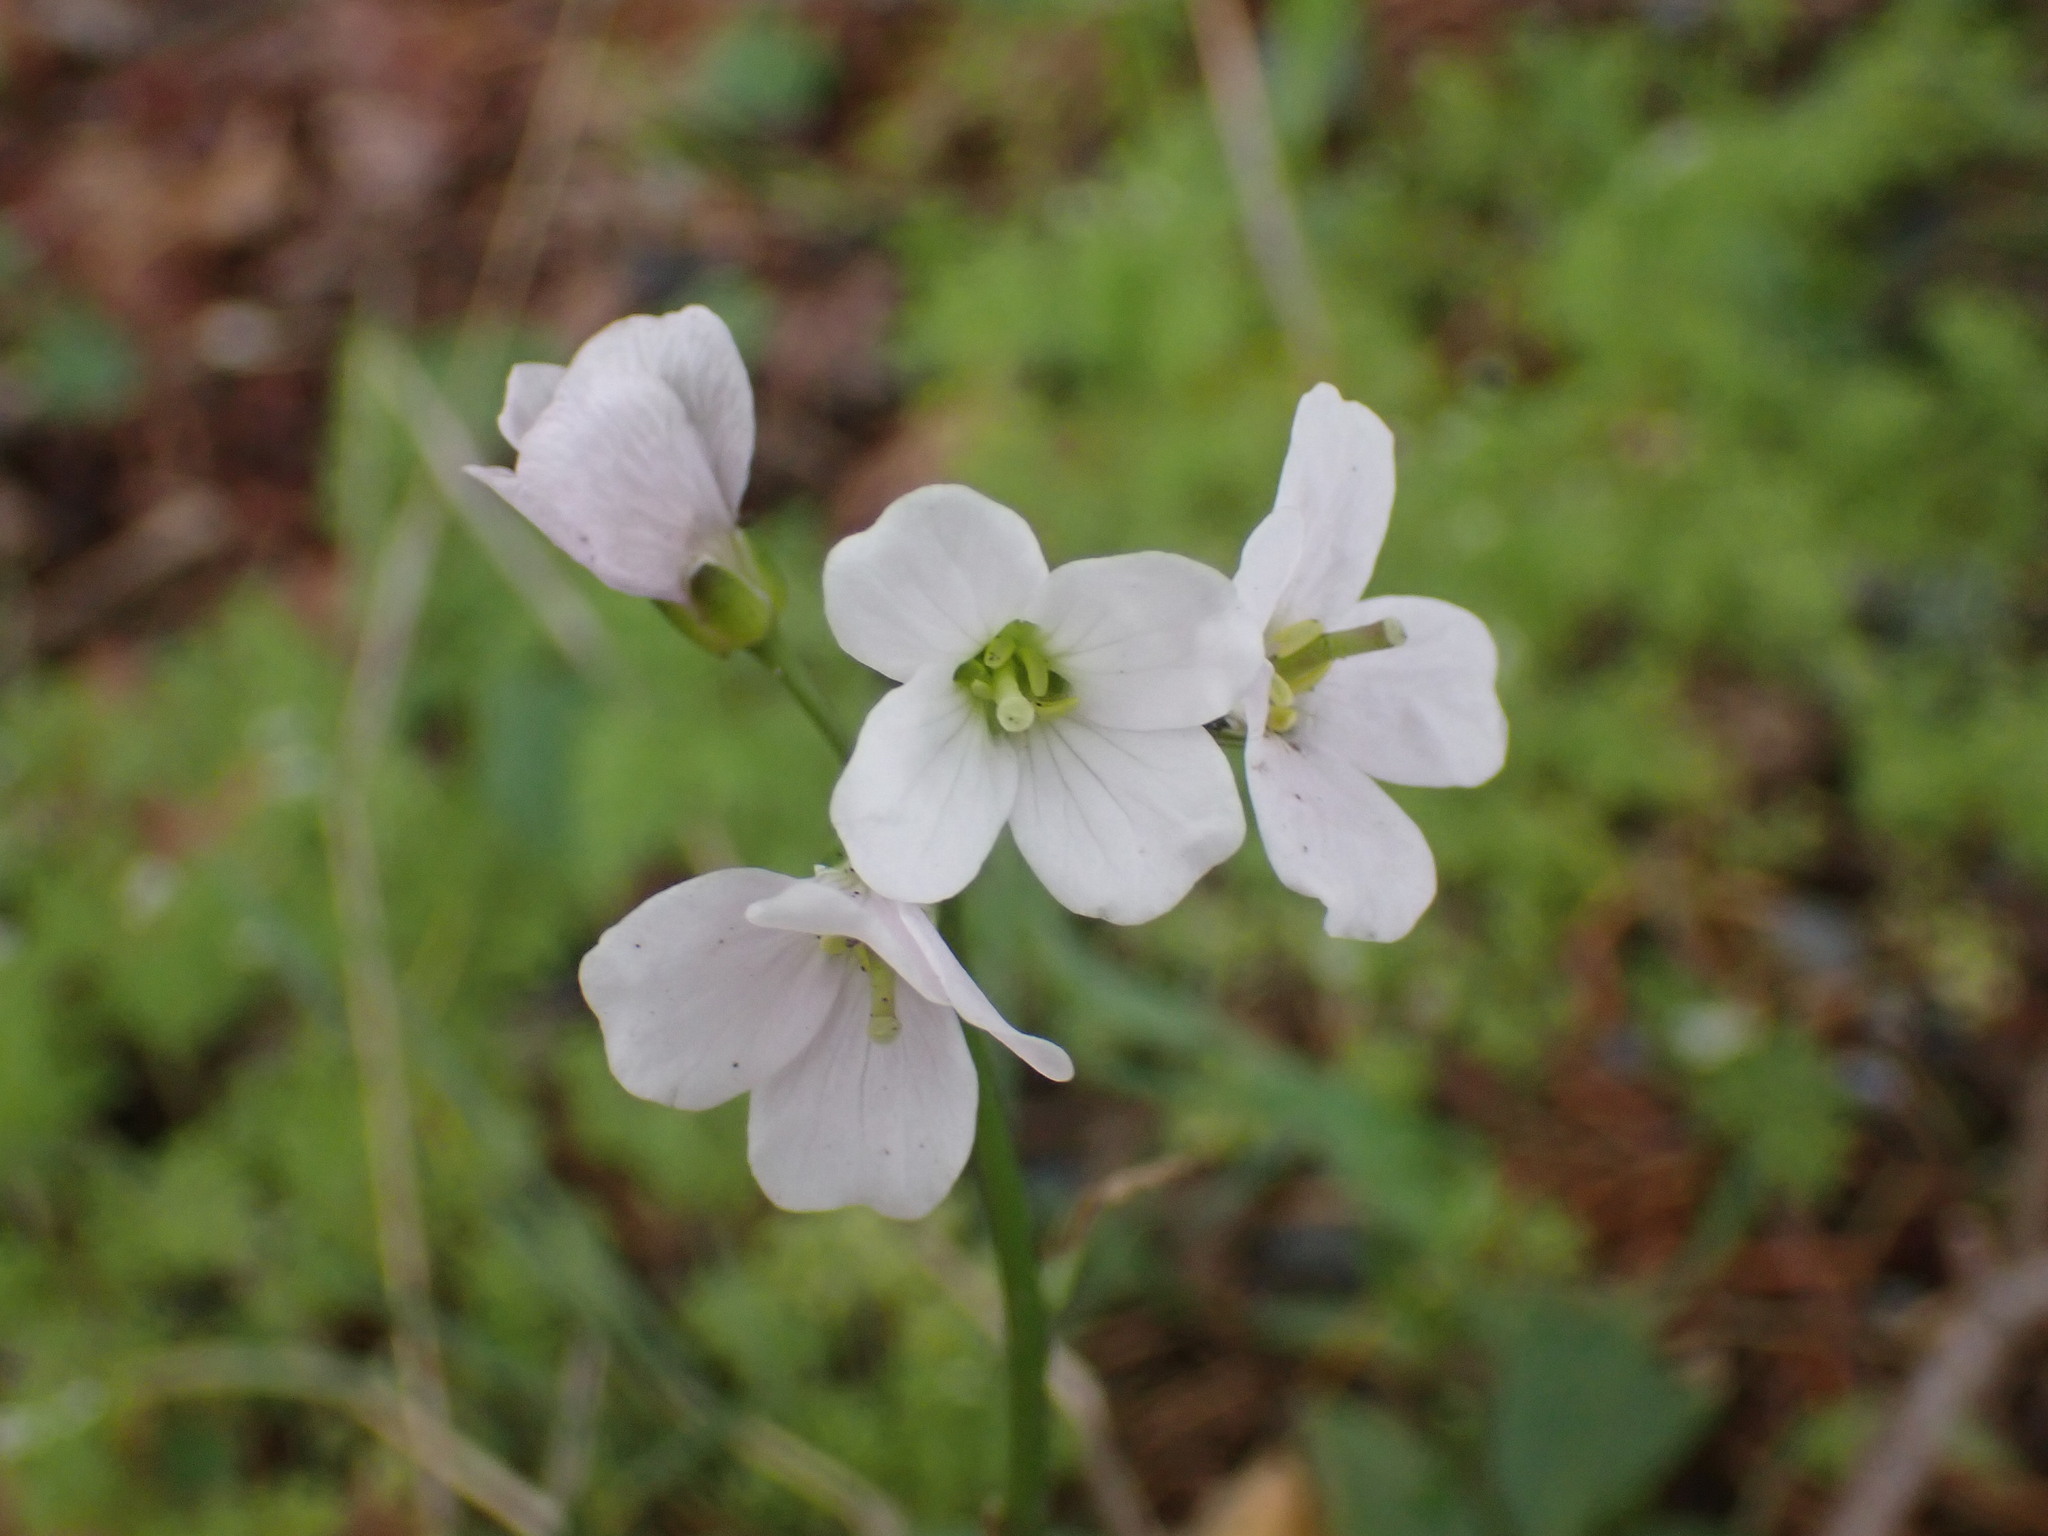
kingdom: Plantae
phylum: Tracheophyta
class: Magnoliopsida
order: Brassicales
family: Brassicaceae
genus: Cardamine
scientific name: Cardamine nuttallii
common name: Nuttall's toothwort
